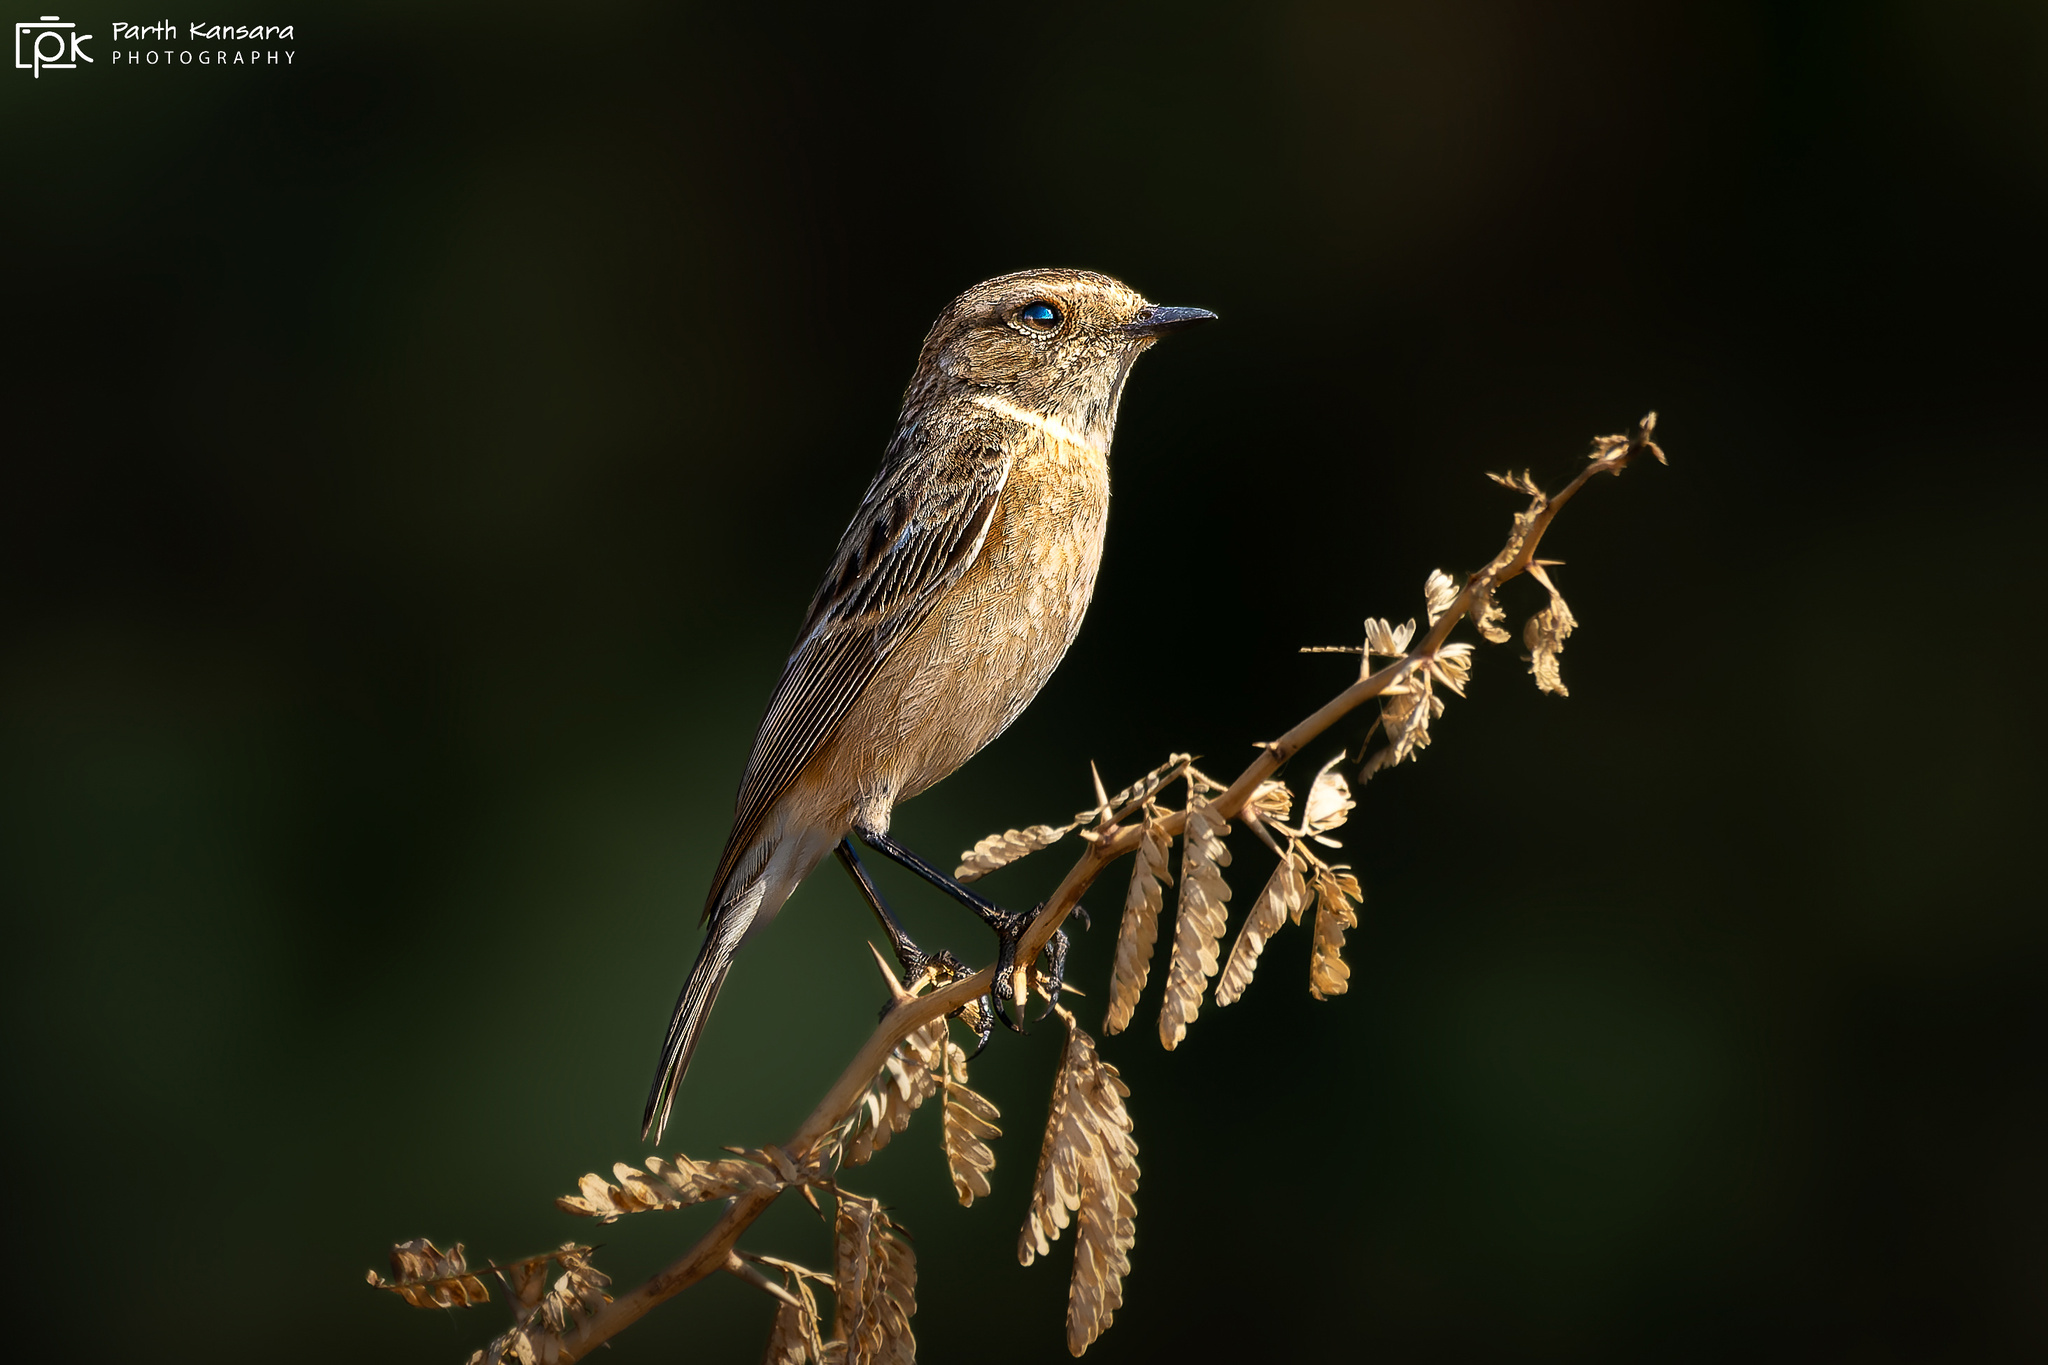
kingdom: Animalia
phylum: Chordata
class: Aves
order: Passeriformes
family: Muscicapidae
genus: Saxicola
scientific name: Saxicola maurus
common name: Siberian stonechat
